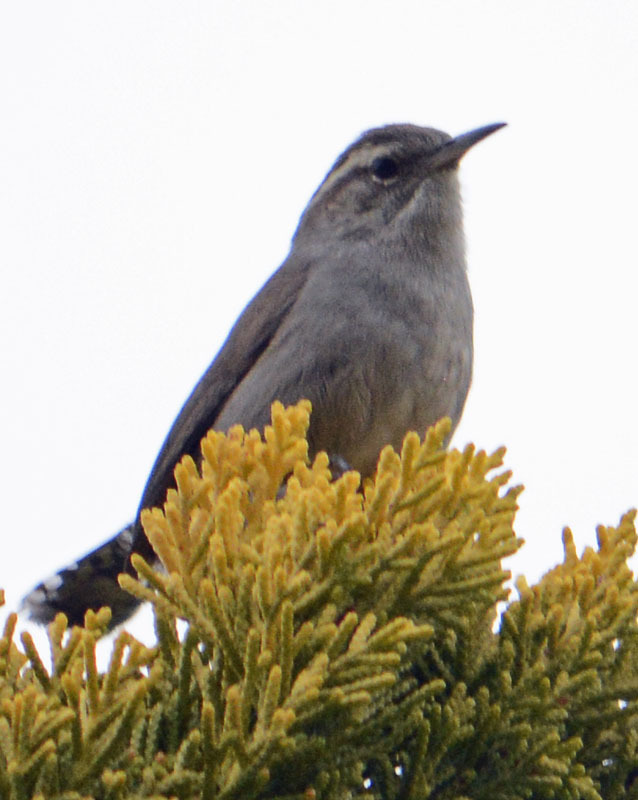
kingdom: Animalia
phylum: Chordata
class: Aves
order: Passeriformes
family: Troglodytidae
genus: Thryomanes
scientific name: Thryomanes bewickii
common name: Bewick's wren
